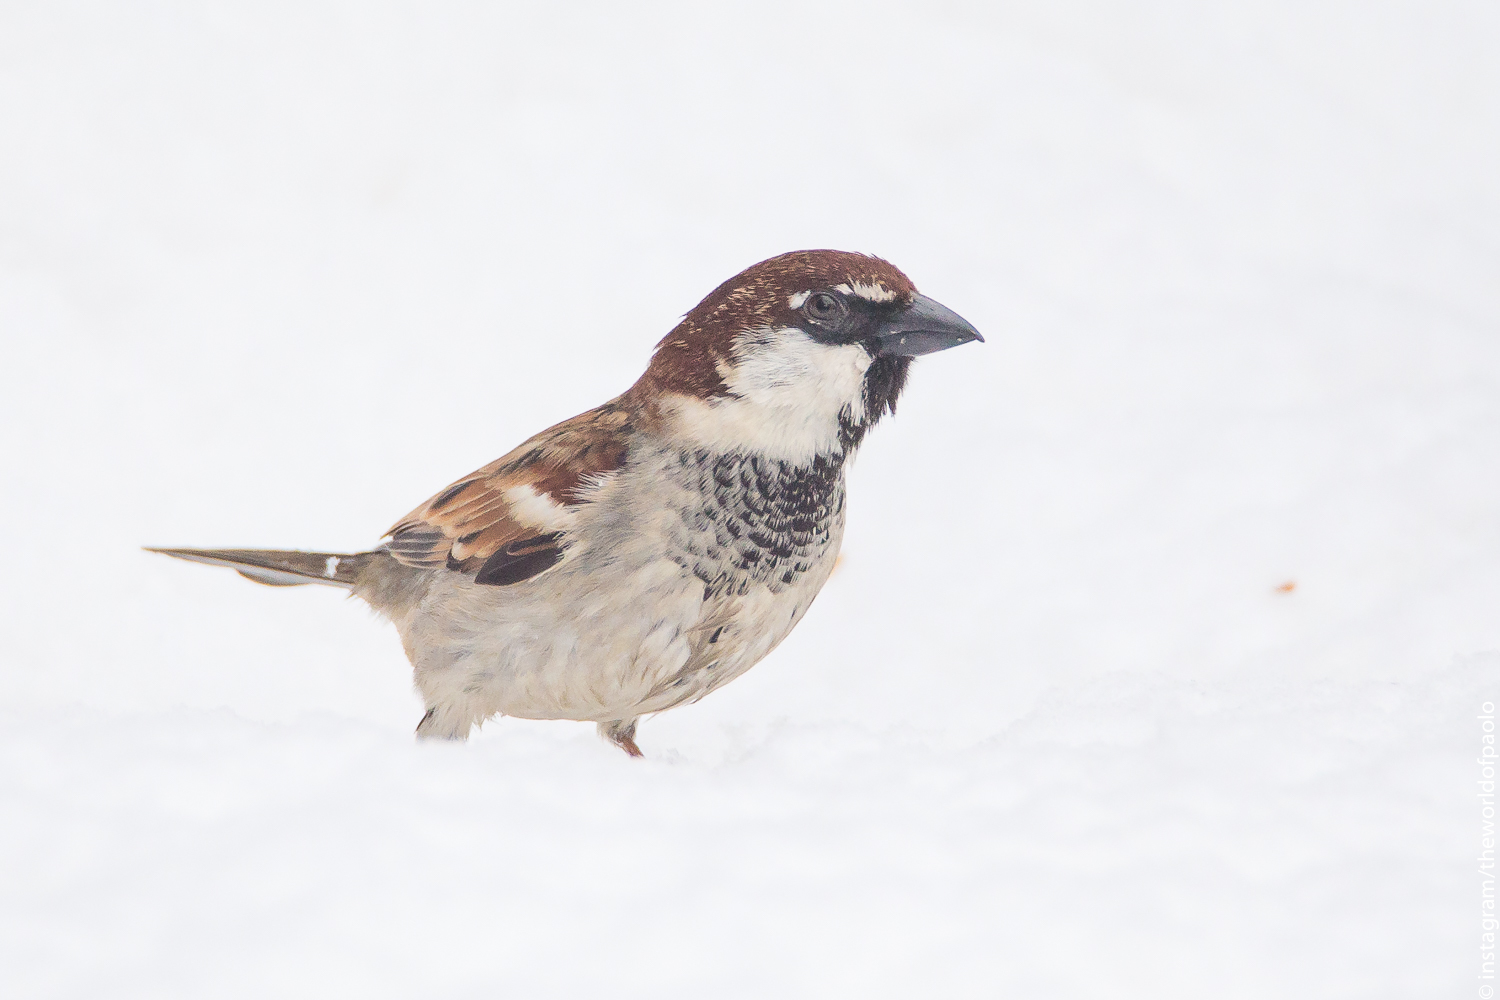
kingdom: Animalia
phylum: Chordata
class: Aves
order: Passeriformes
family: Passeridae
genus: Passer
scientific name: Passer italiae
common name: Italian sparrow
